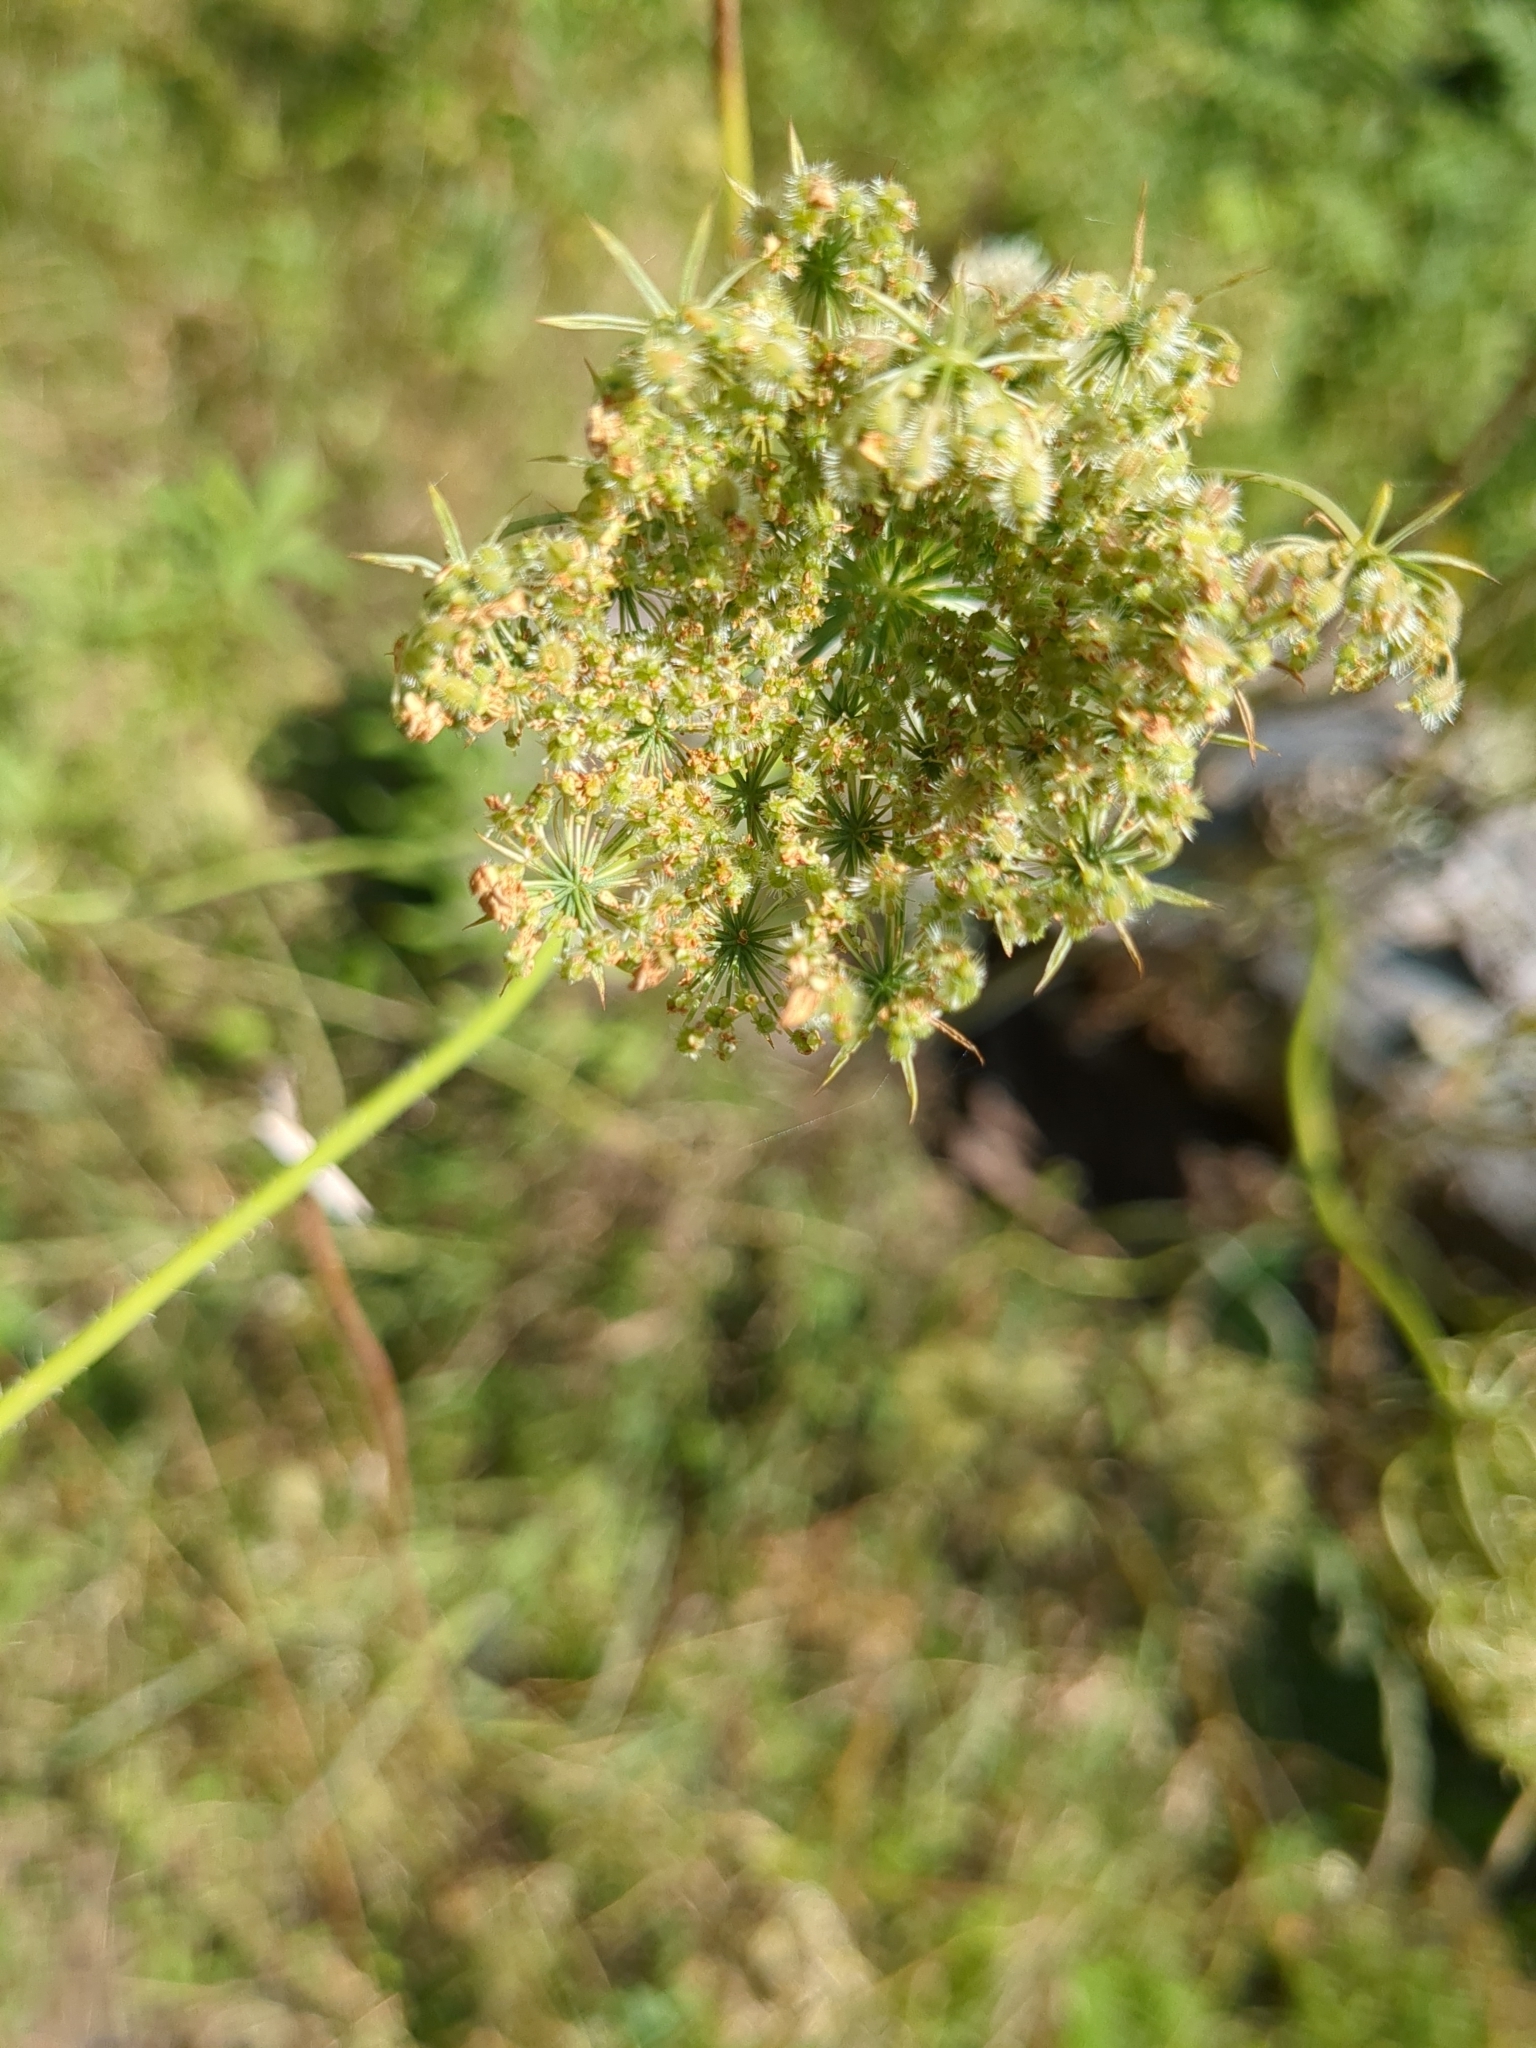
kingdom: Plantae
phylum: Tracheophyta
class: Magnoliopsida
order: Apiales
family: Apiaceae
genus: Daucus
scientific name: Daucus carota
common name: Wild carrot
